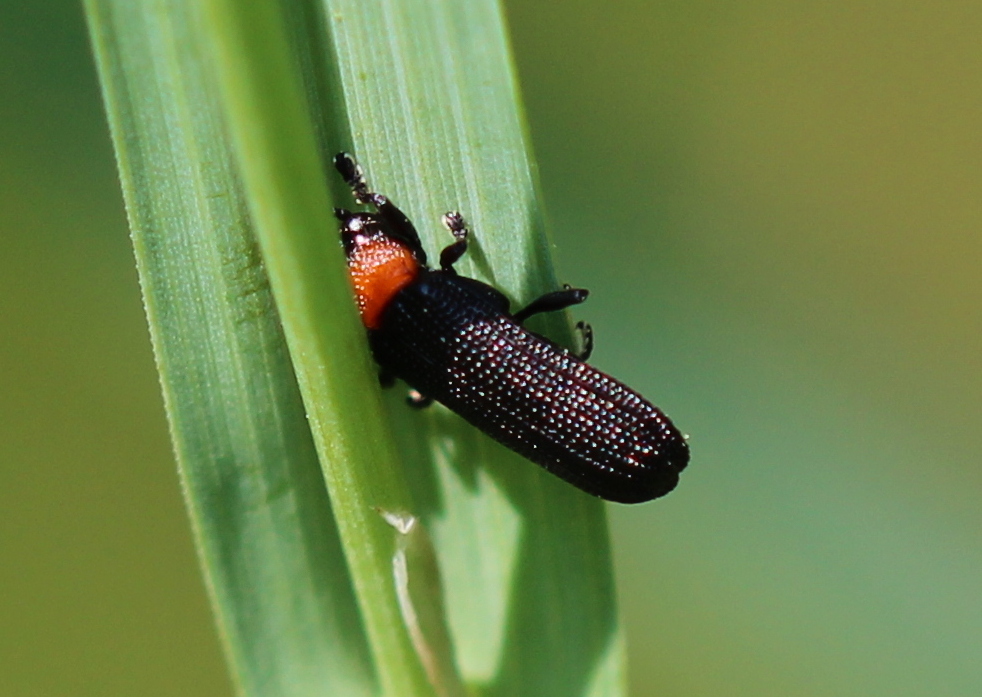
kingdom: Animalia
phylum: Arthropoda
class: Insecta
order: Coleoptera
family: Chrysomelidae
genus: Chalepus
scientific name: Chalepus walshii
